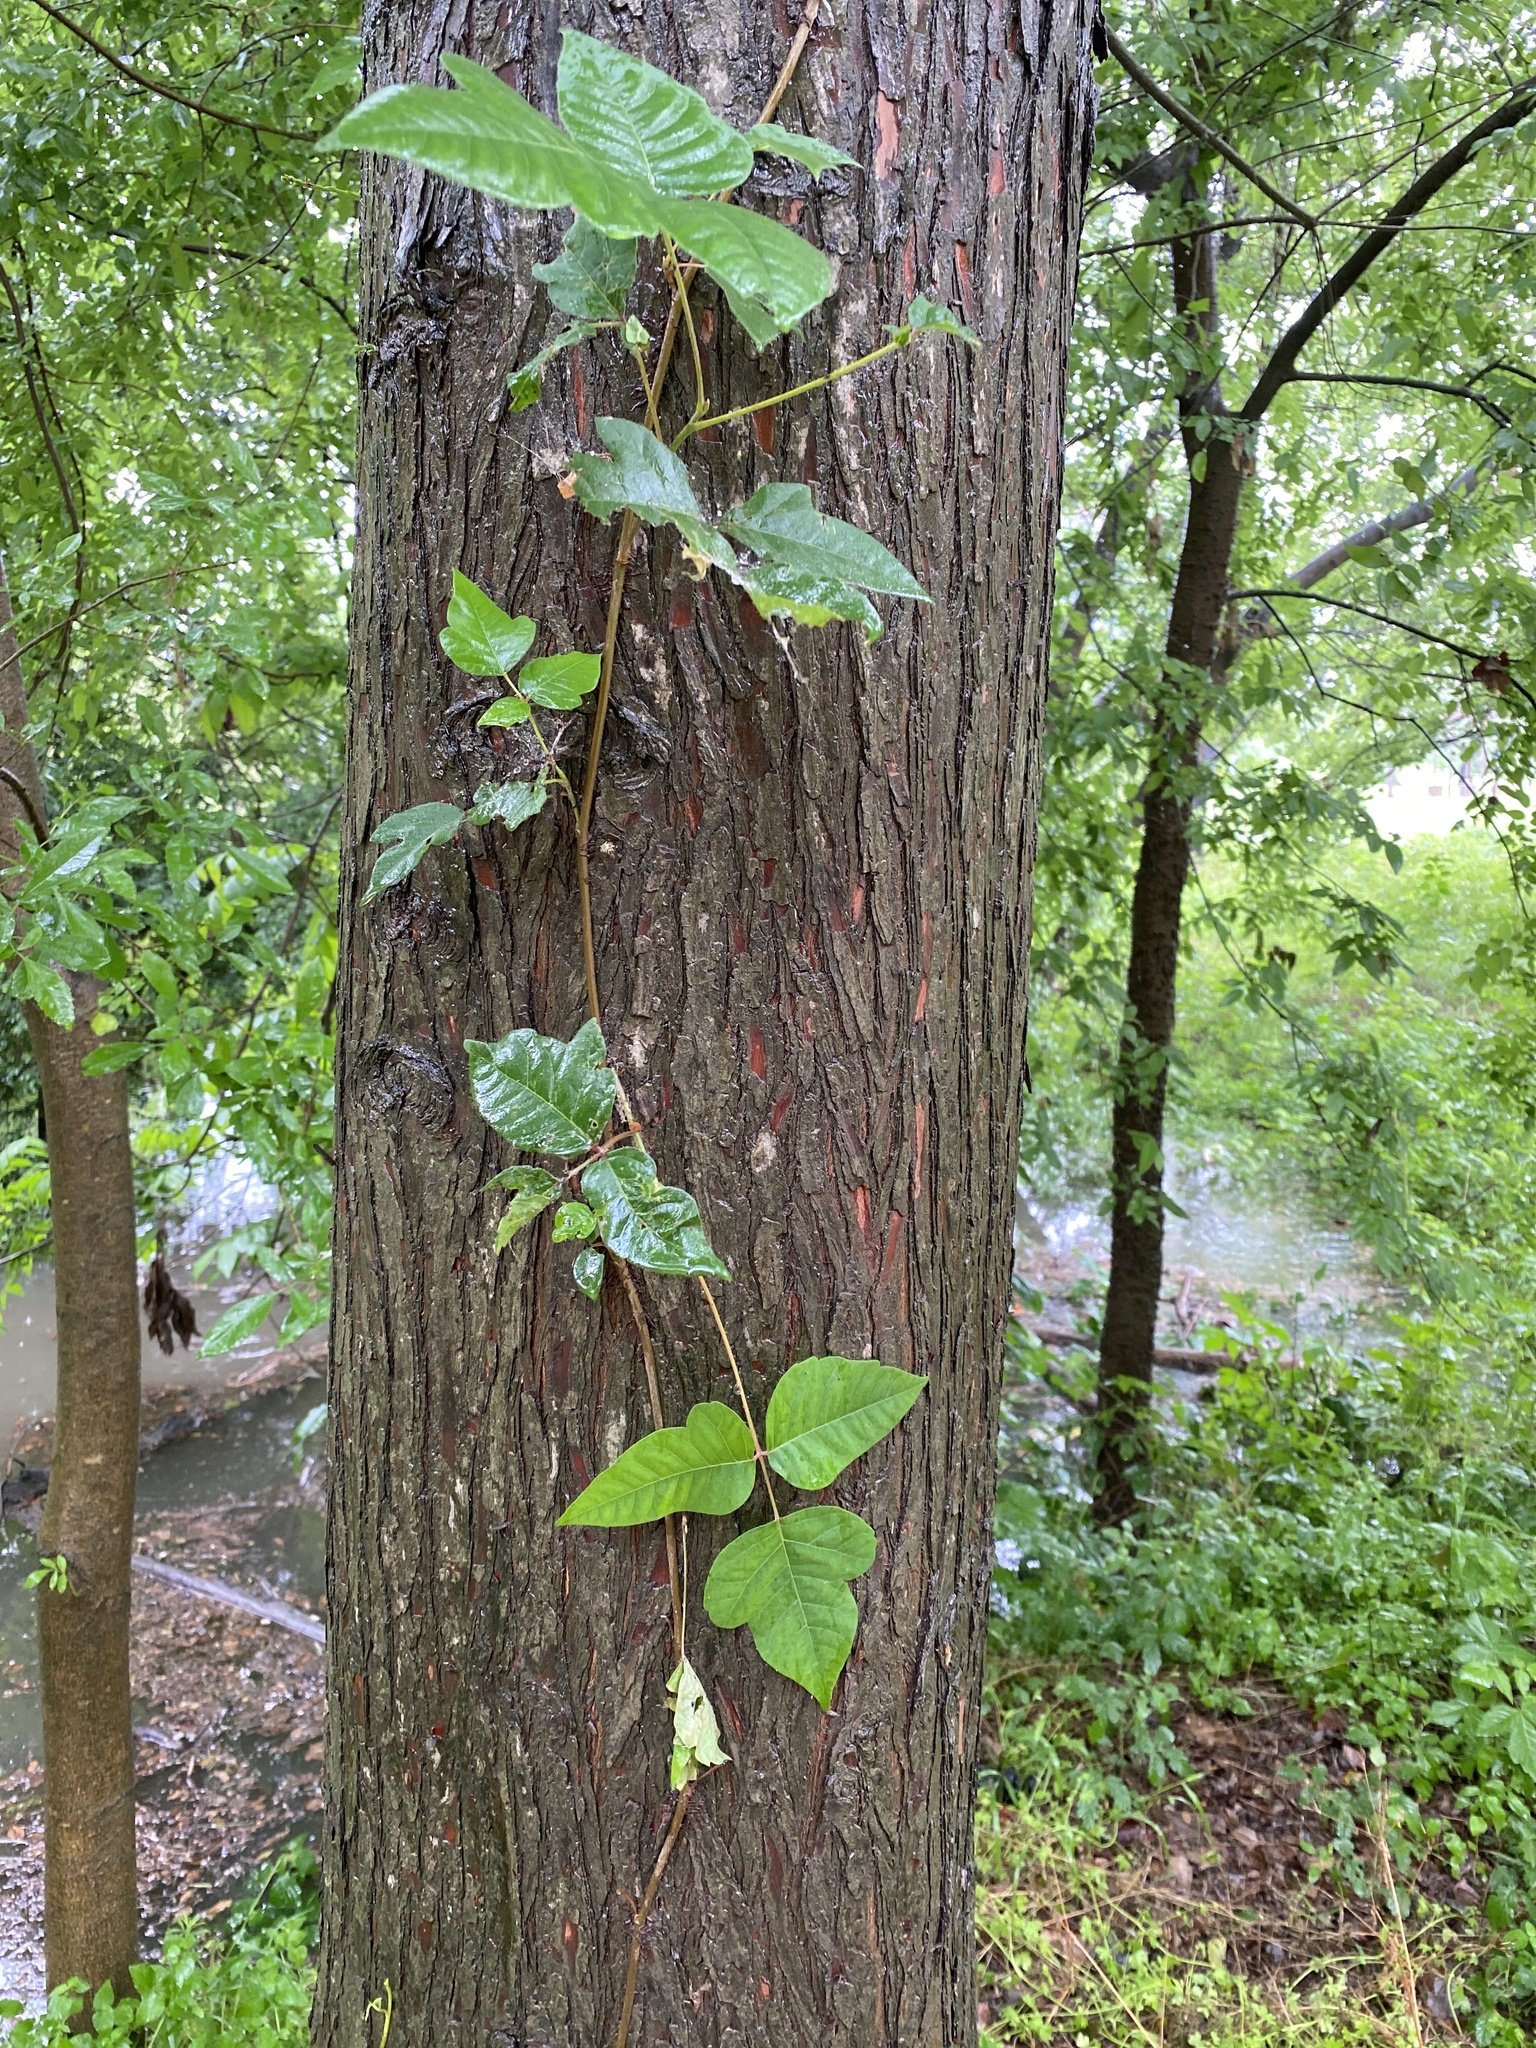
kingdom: Plantae
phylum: Tracheophyta
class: Magnoliopsida
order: Sapindales
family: Anacardiaceae
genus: Toxicodendron
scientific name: Toxicodendron radicans
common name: Poison ivy
